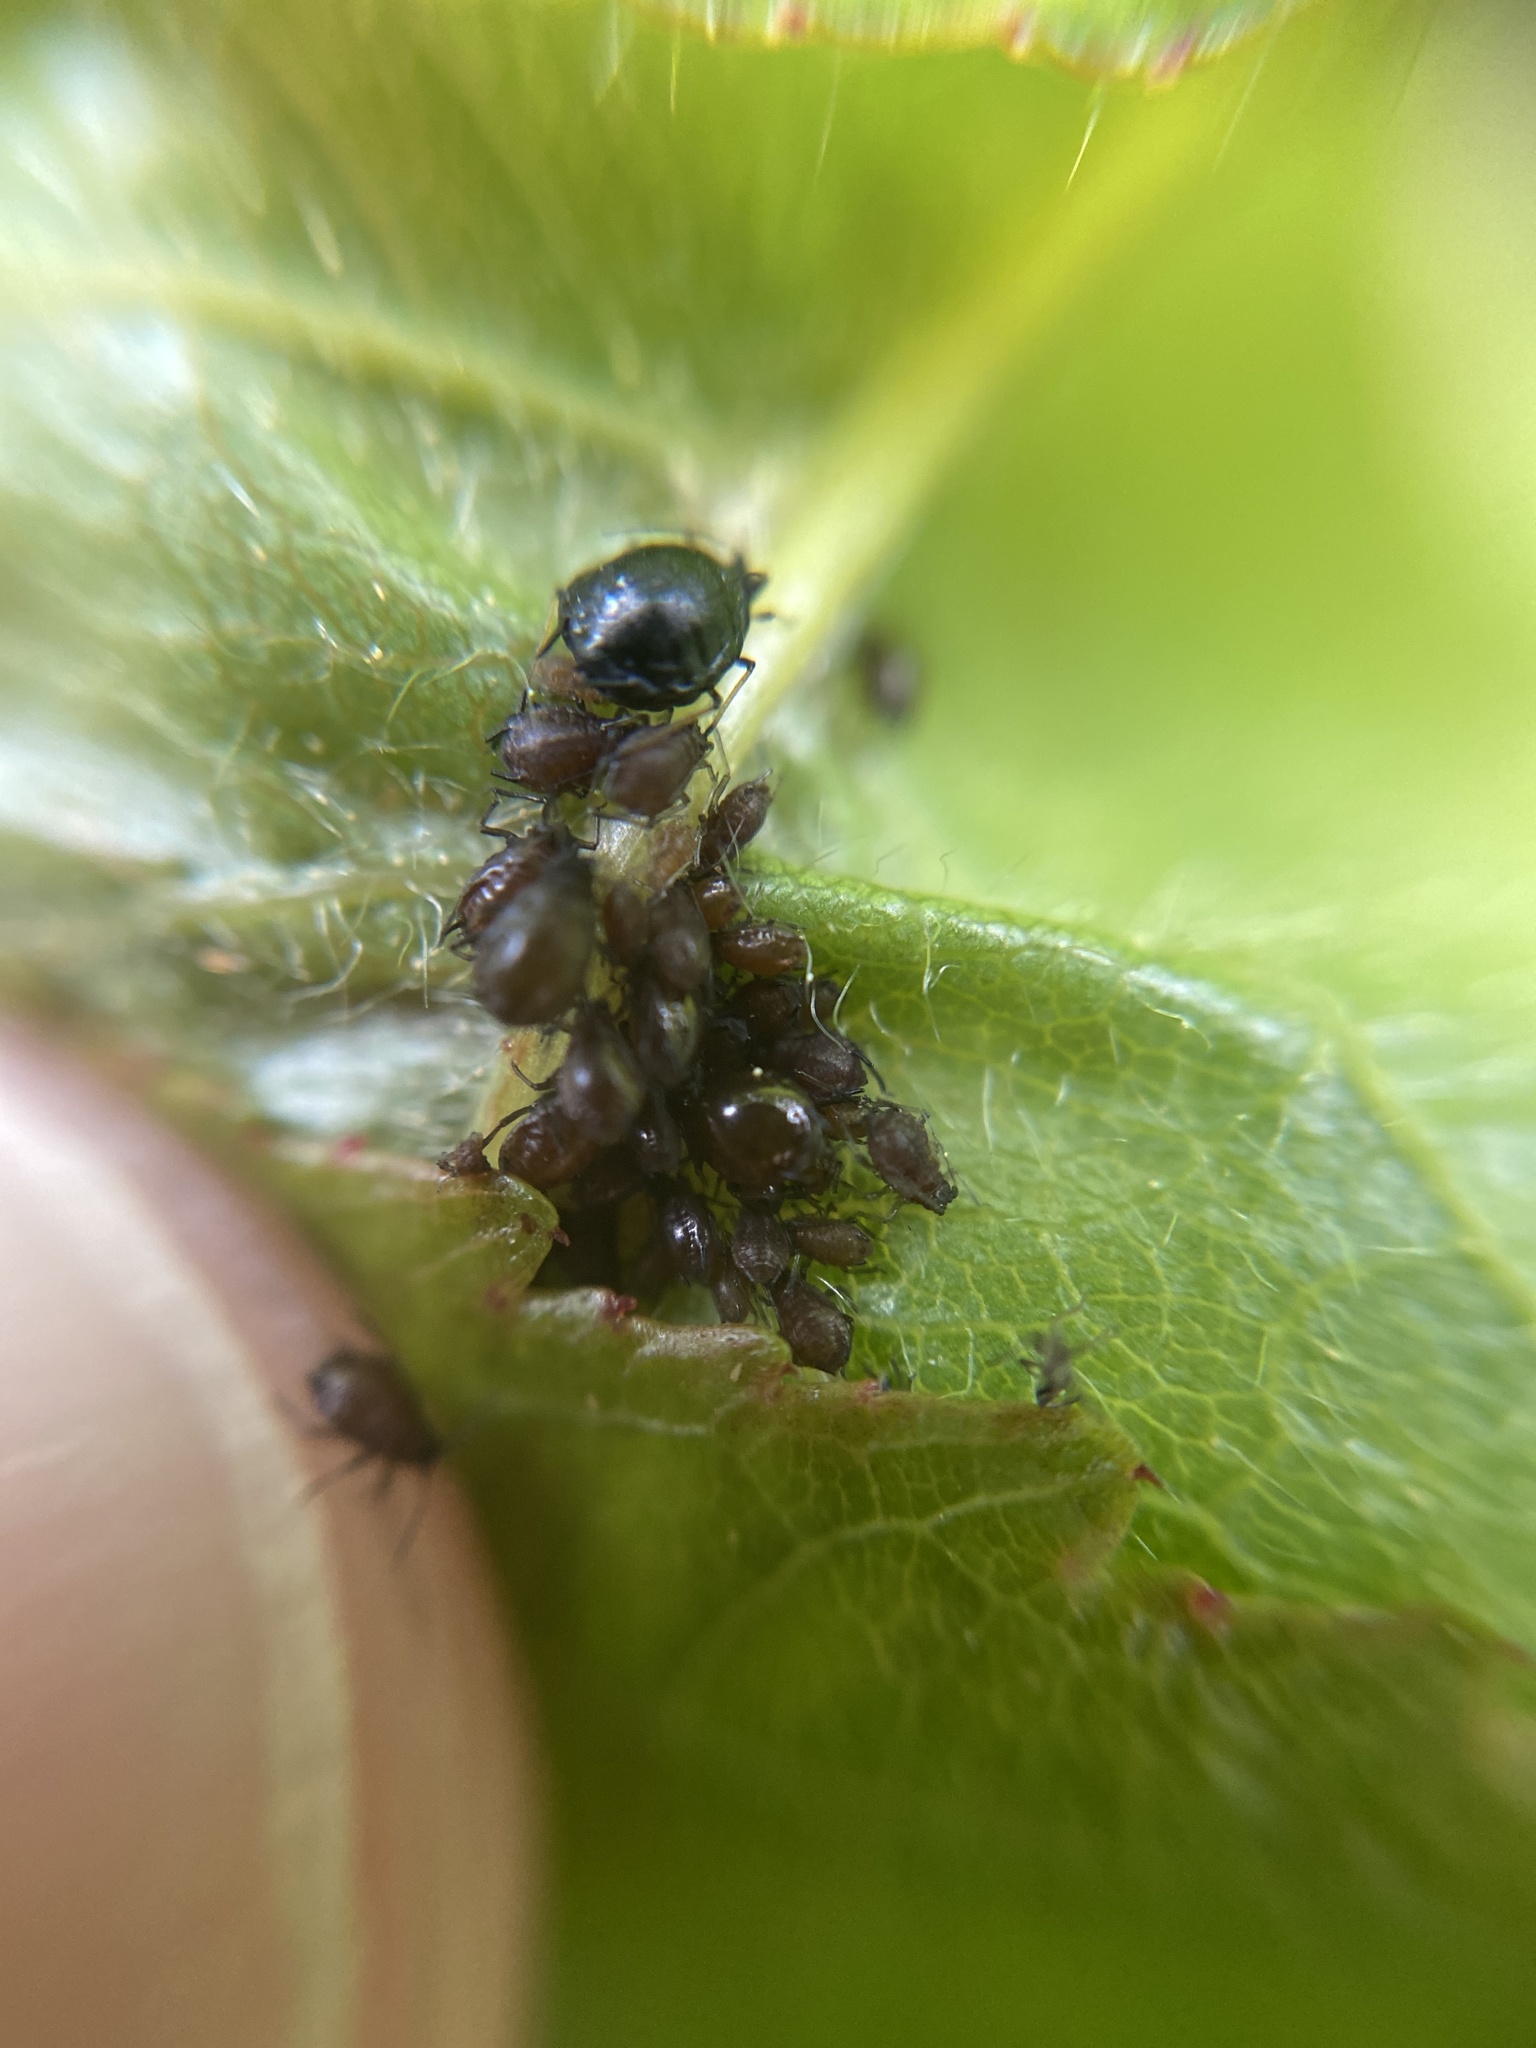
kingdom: Animalia
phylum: Arthropoda
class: Insecta
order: Hemiptera
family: Aphididae
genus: Myzus
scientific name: Myzus cerasi
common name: Black cherry aphid
